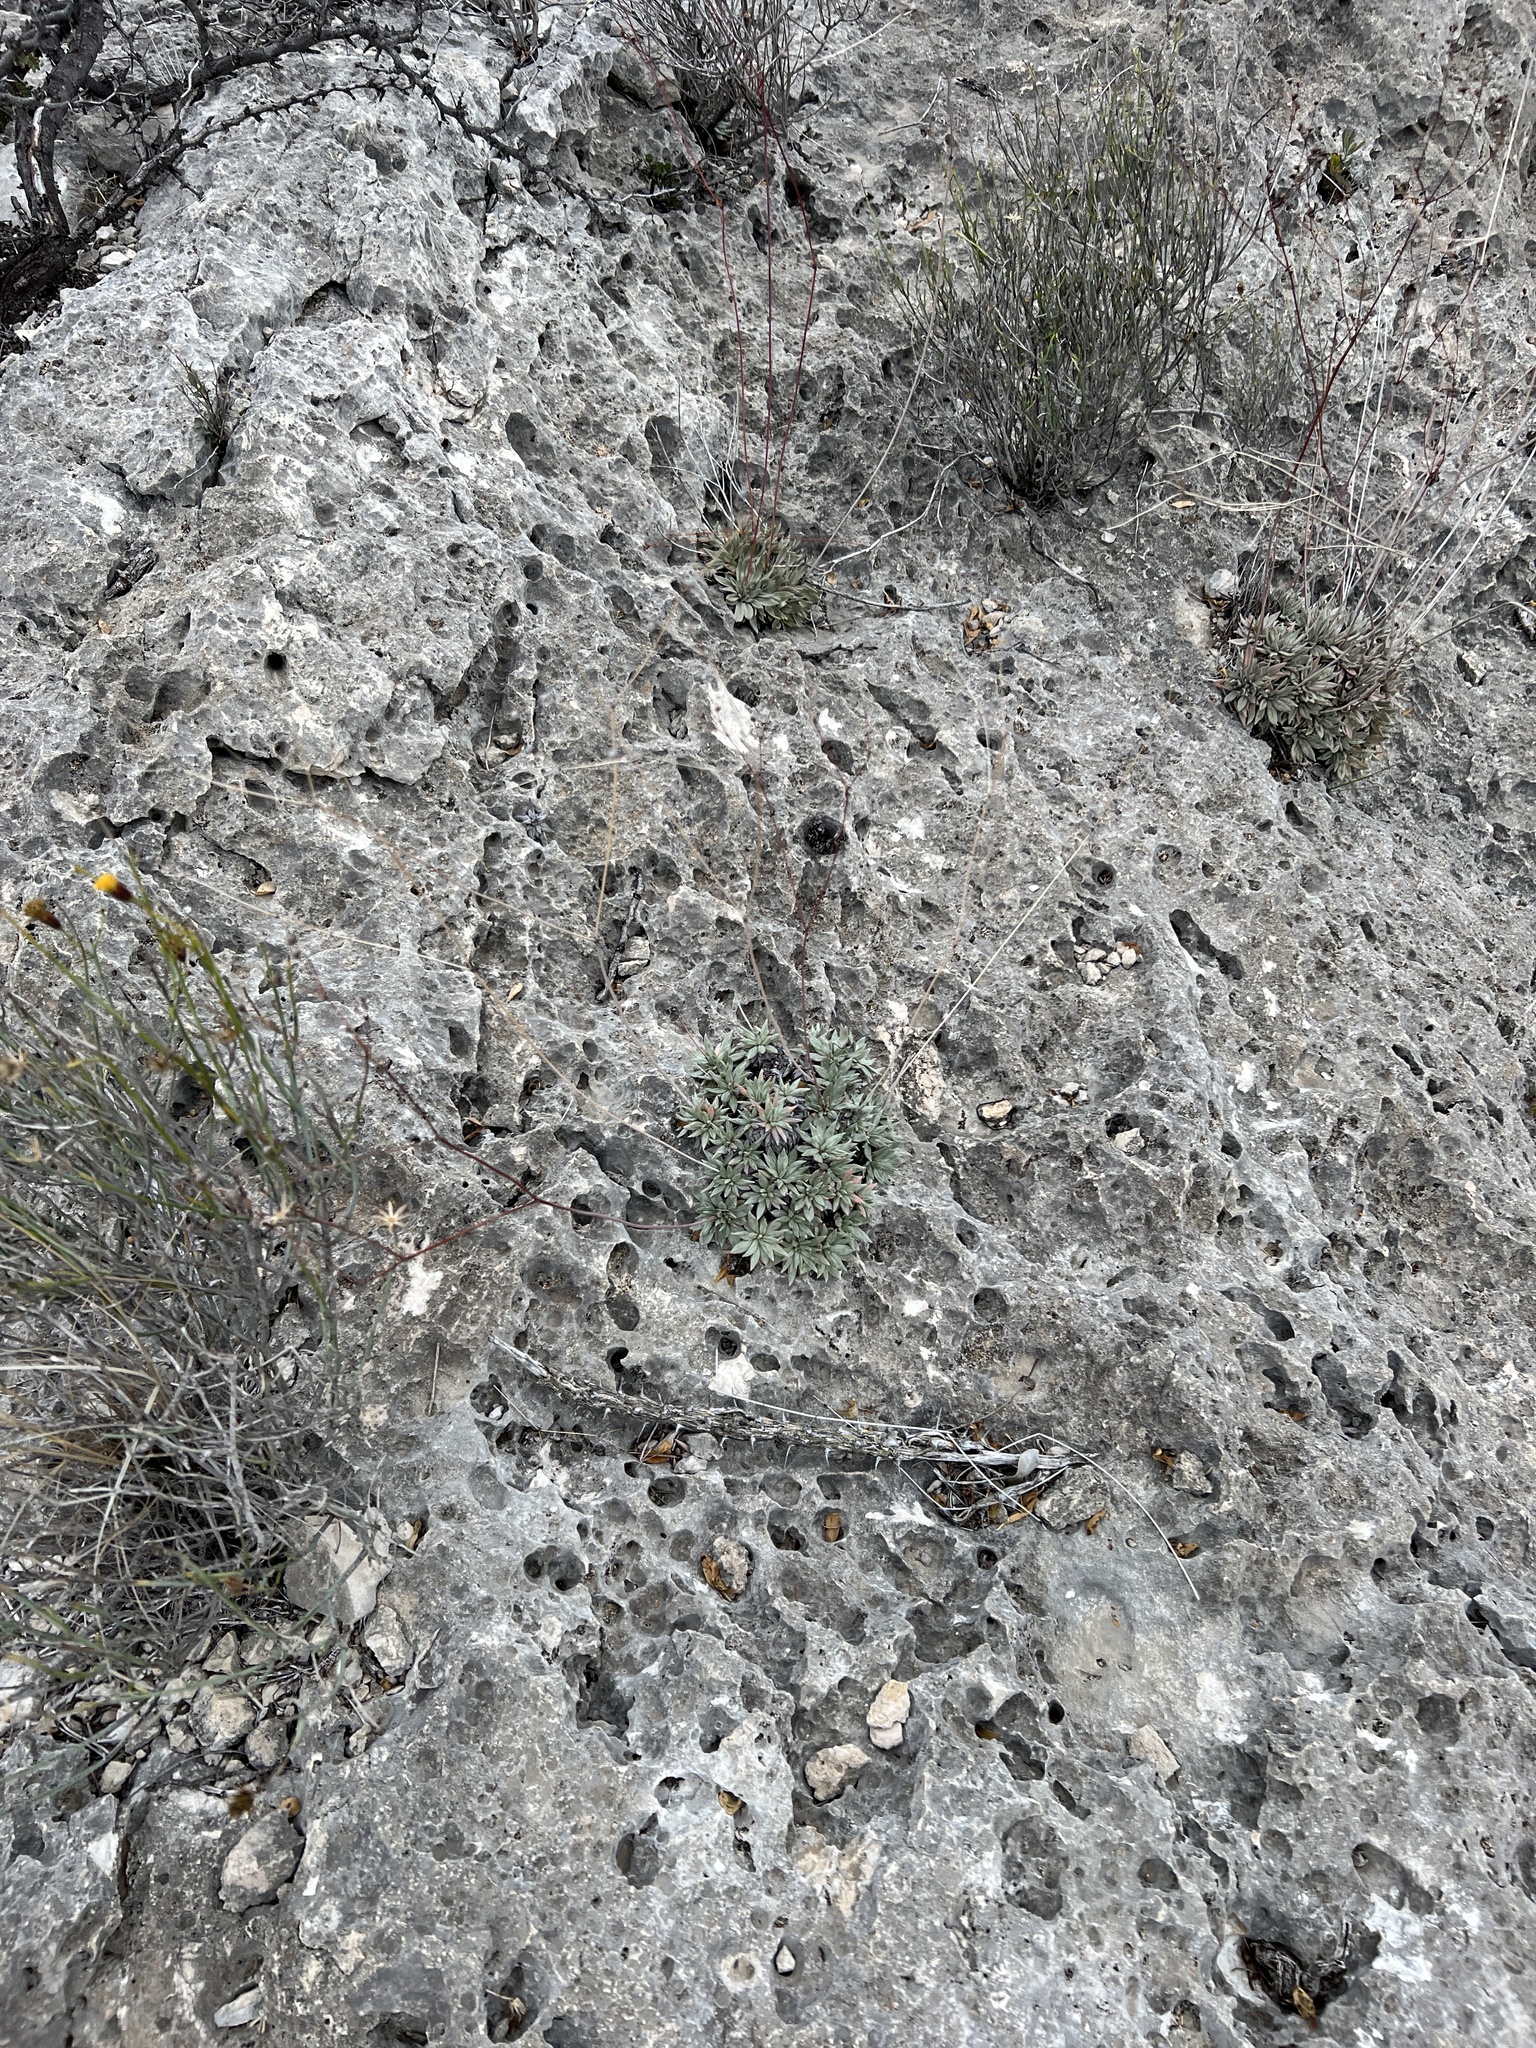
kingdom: Plantae
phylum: Tracheophyta
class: Magnoliopsida
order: Caryophyllales
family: Polygonaceae
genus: Eriogonum
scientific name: Eriogonum havardii
